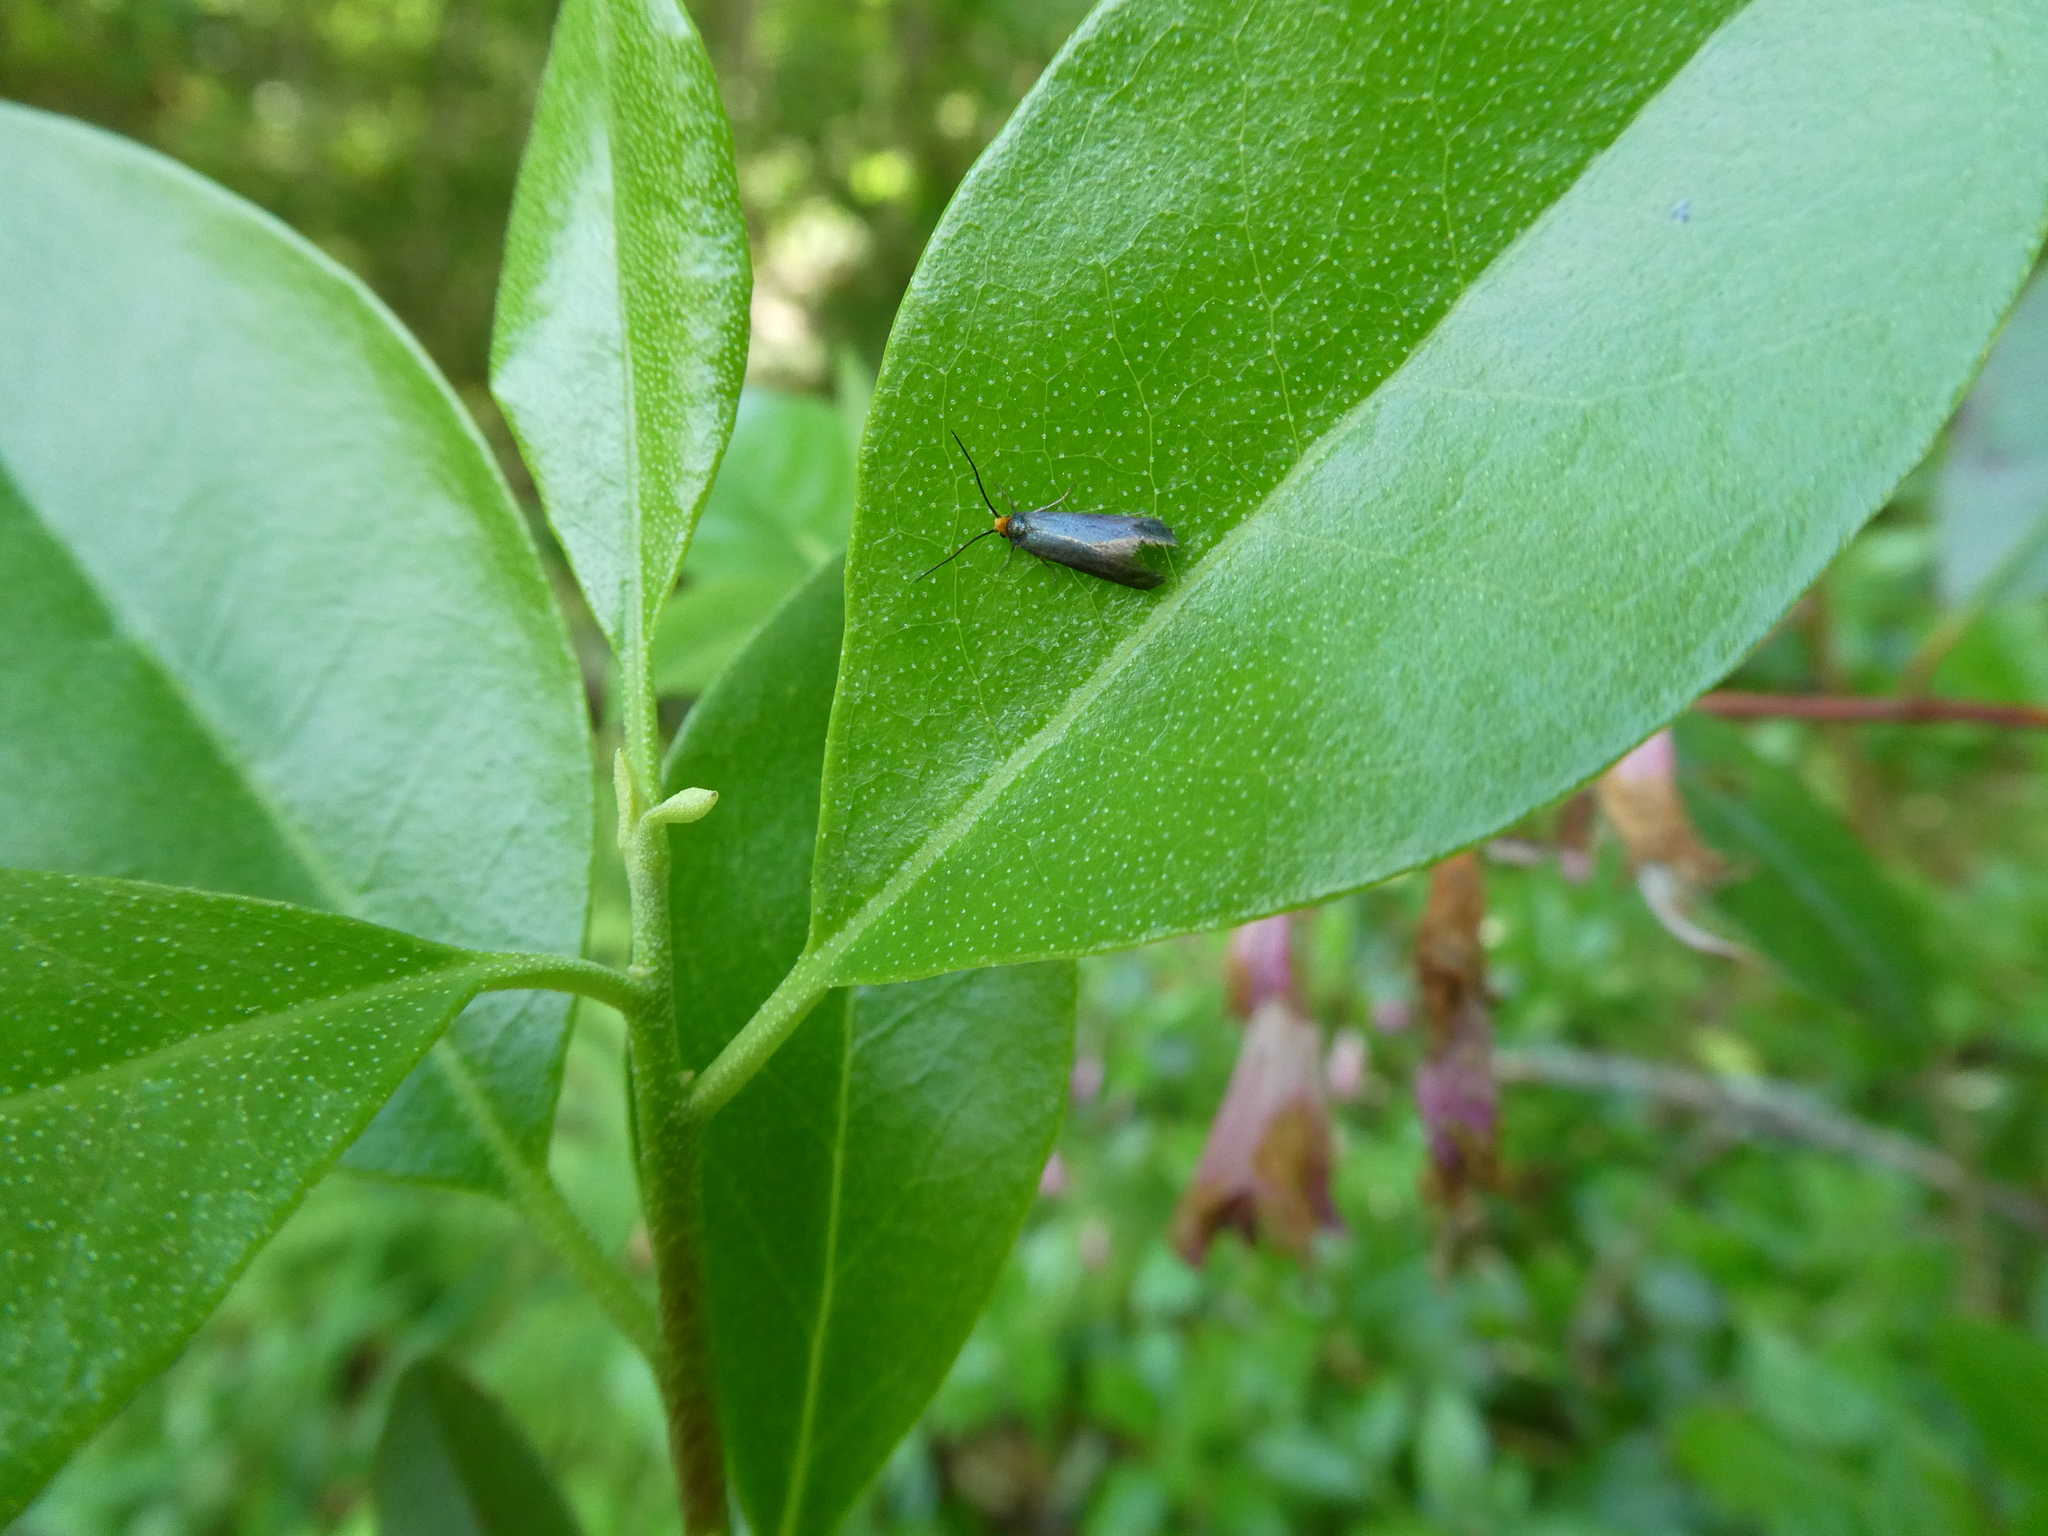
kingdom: Animalia
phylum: Arthropoda
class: Insecta
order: Lepidoptera
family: Incurvariidae
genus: Paraclemensia
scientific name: Paraclemensia acerifoliella
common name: Maple leafcutter
